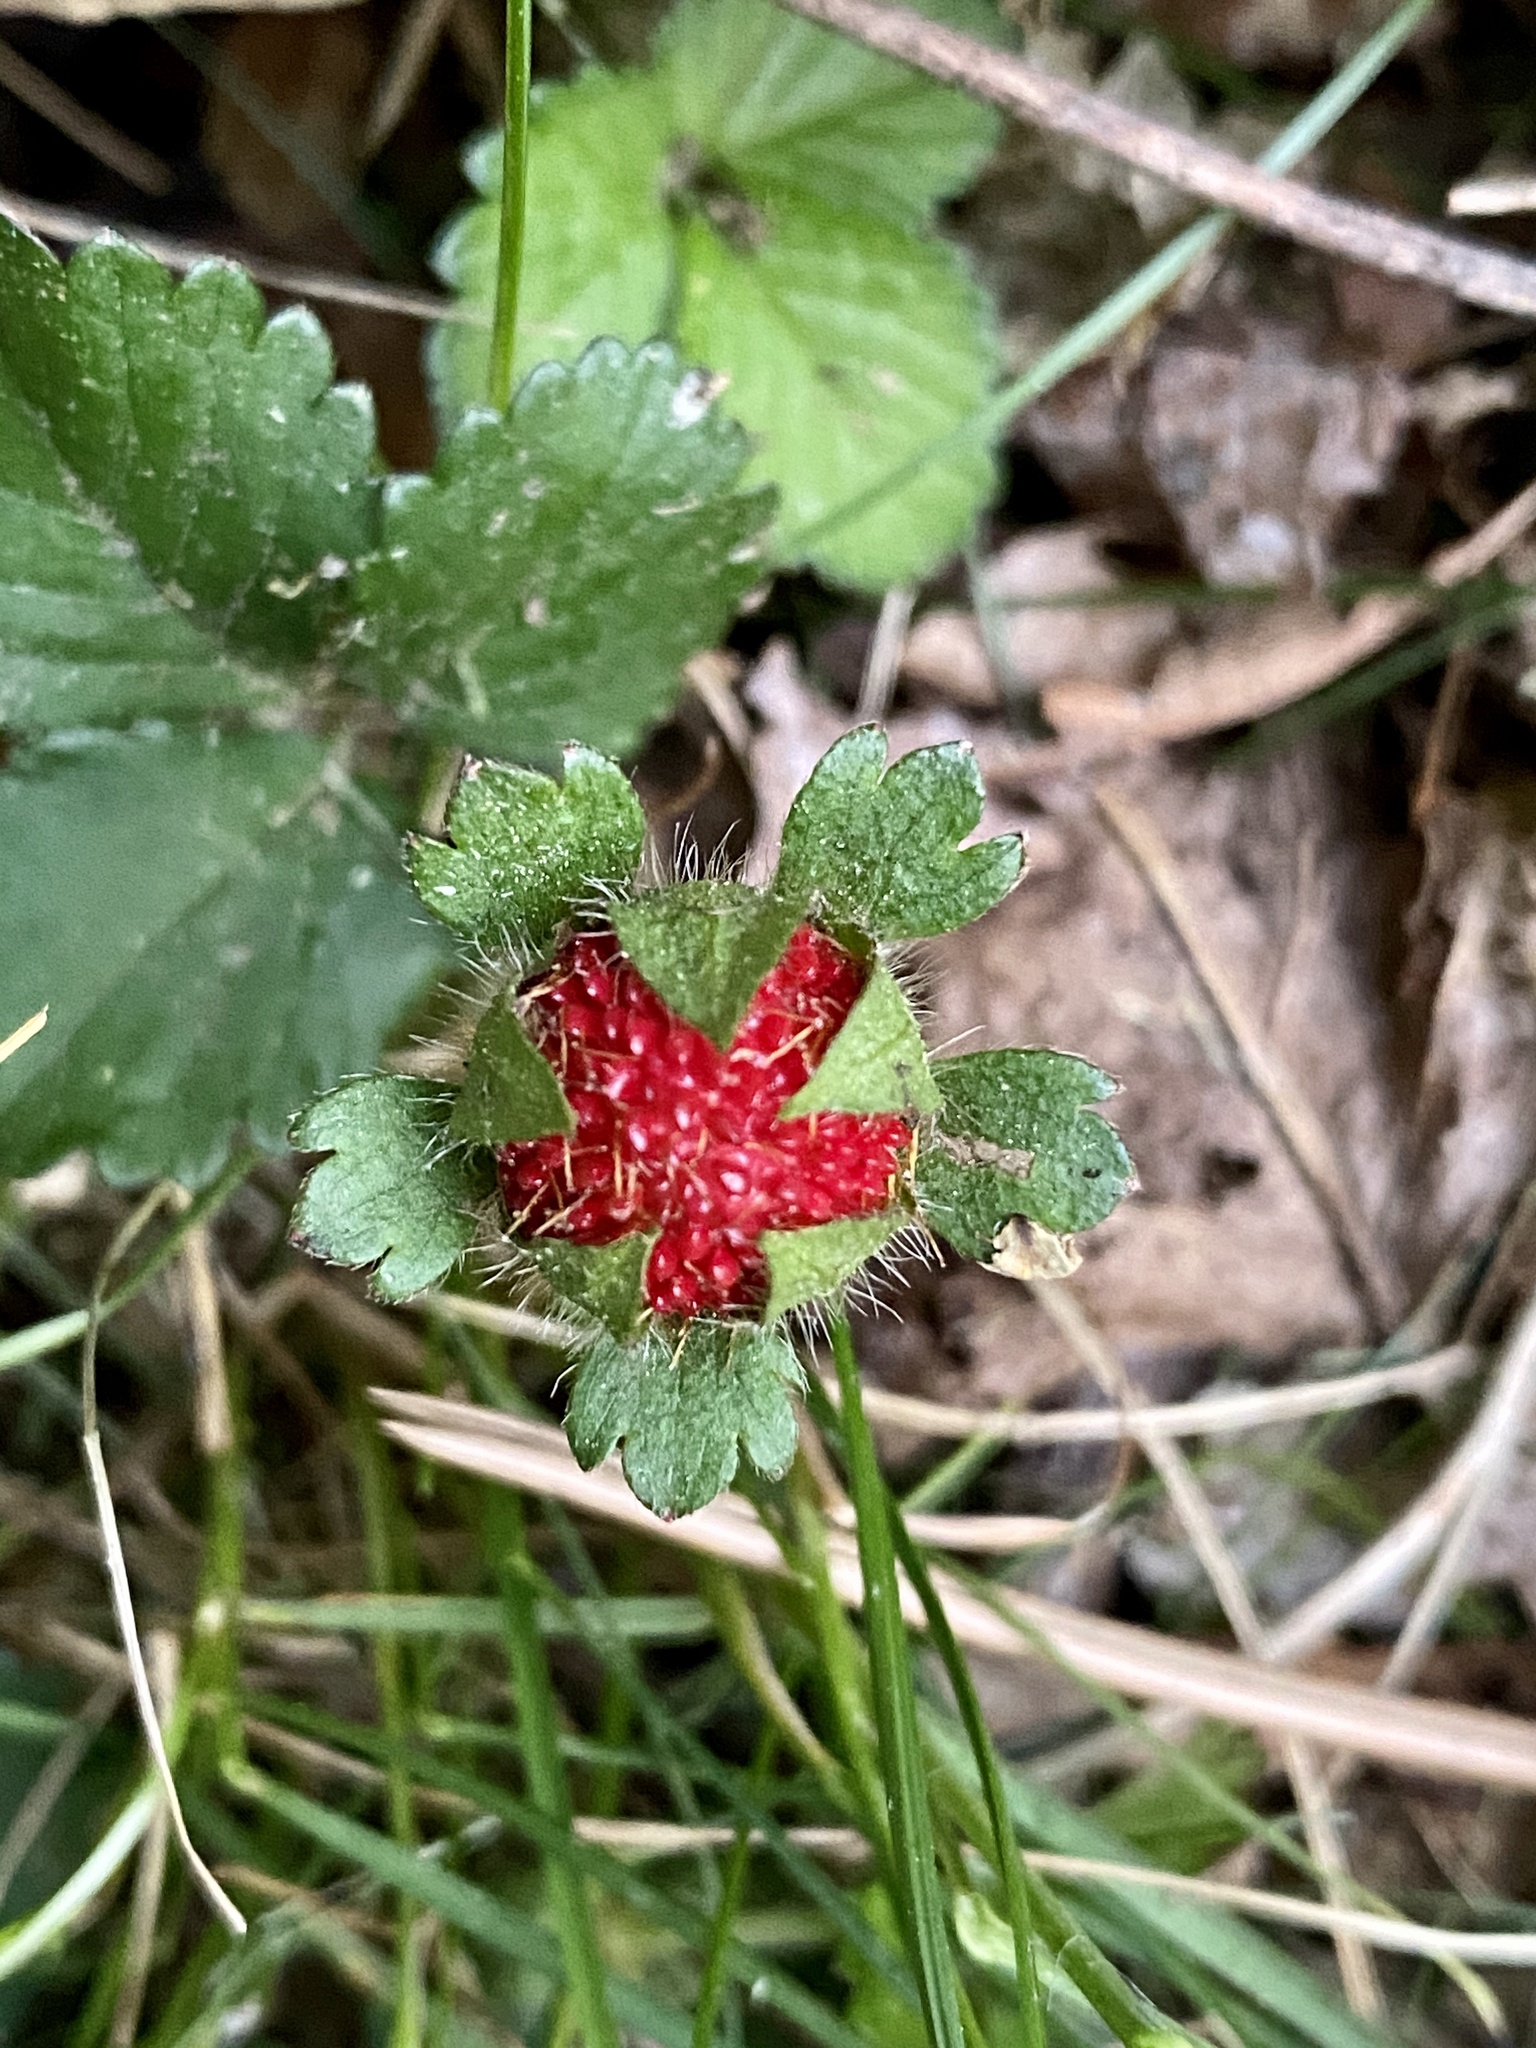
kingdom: Plantae
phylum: Tracheophyta
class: Magnoliopsida
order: Rosales
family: Rosaceae
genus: Potentilla
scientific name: Potentilla indica
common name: Yellow-flowered strawberry
